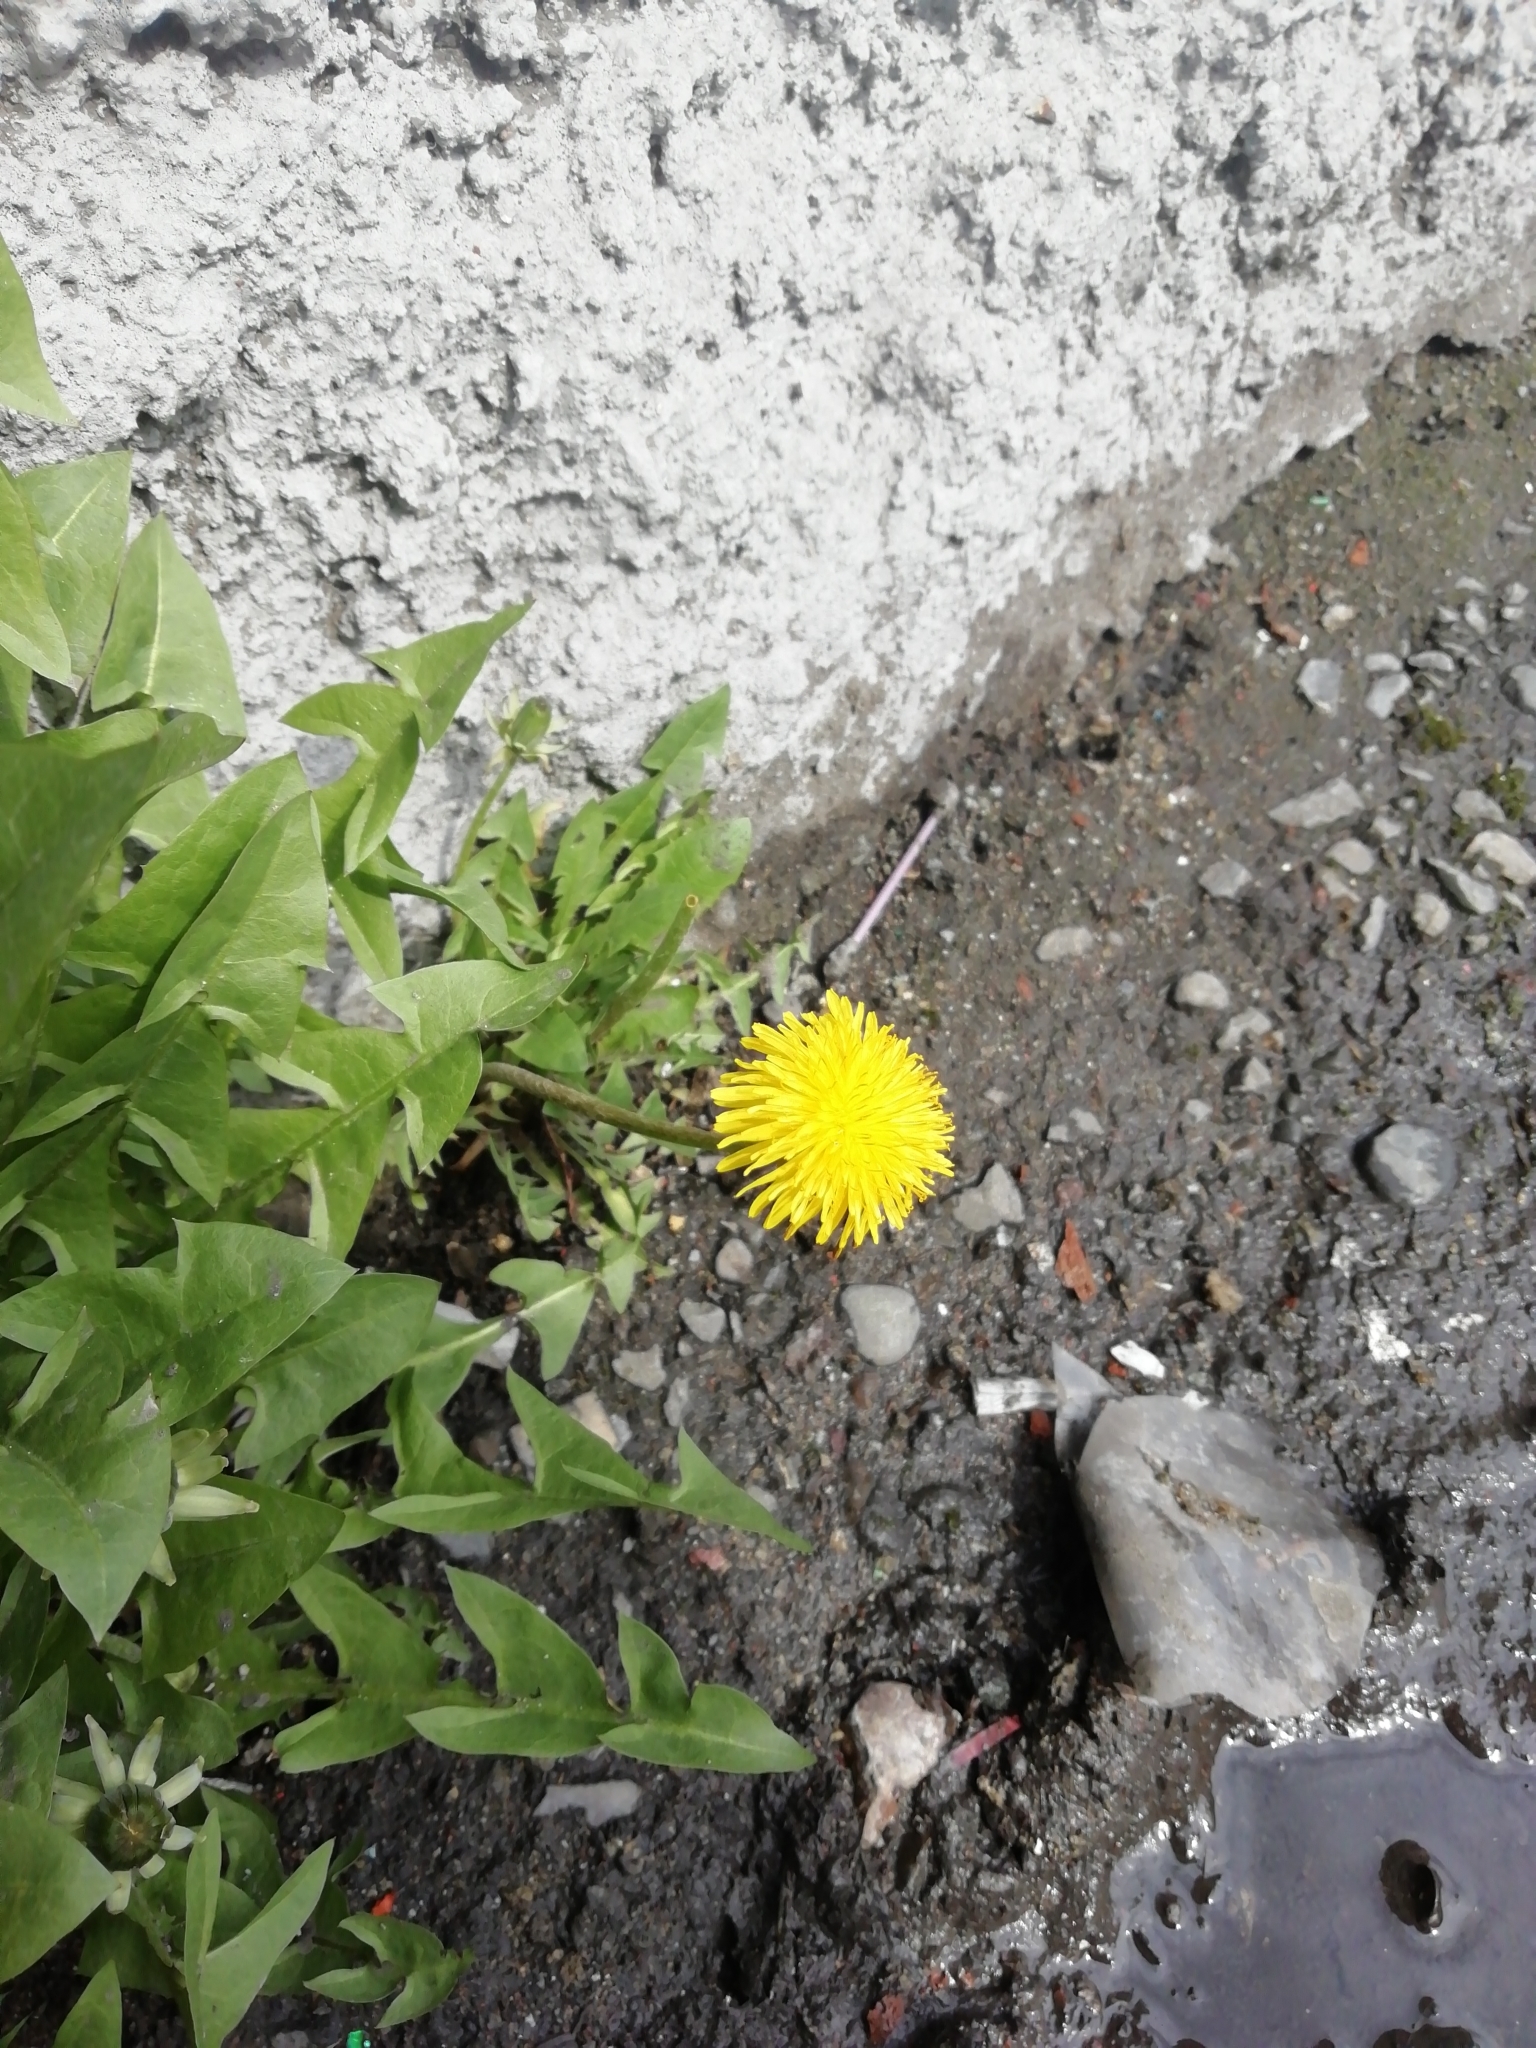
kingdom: Plantae
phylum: Tracheophyta
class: Magnoliopsida
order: Asterales
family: Asteraceae
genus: Taraxacum
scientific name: Taraxacum officinale
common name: Common dandelion
